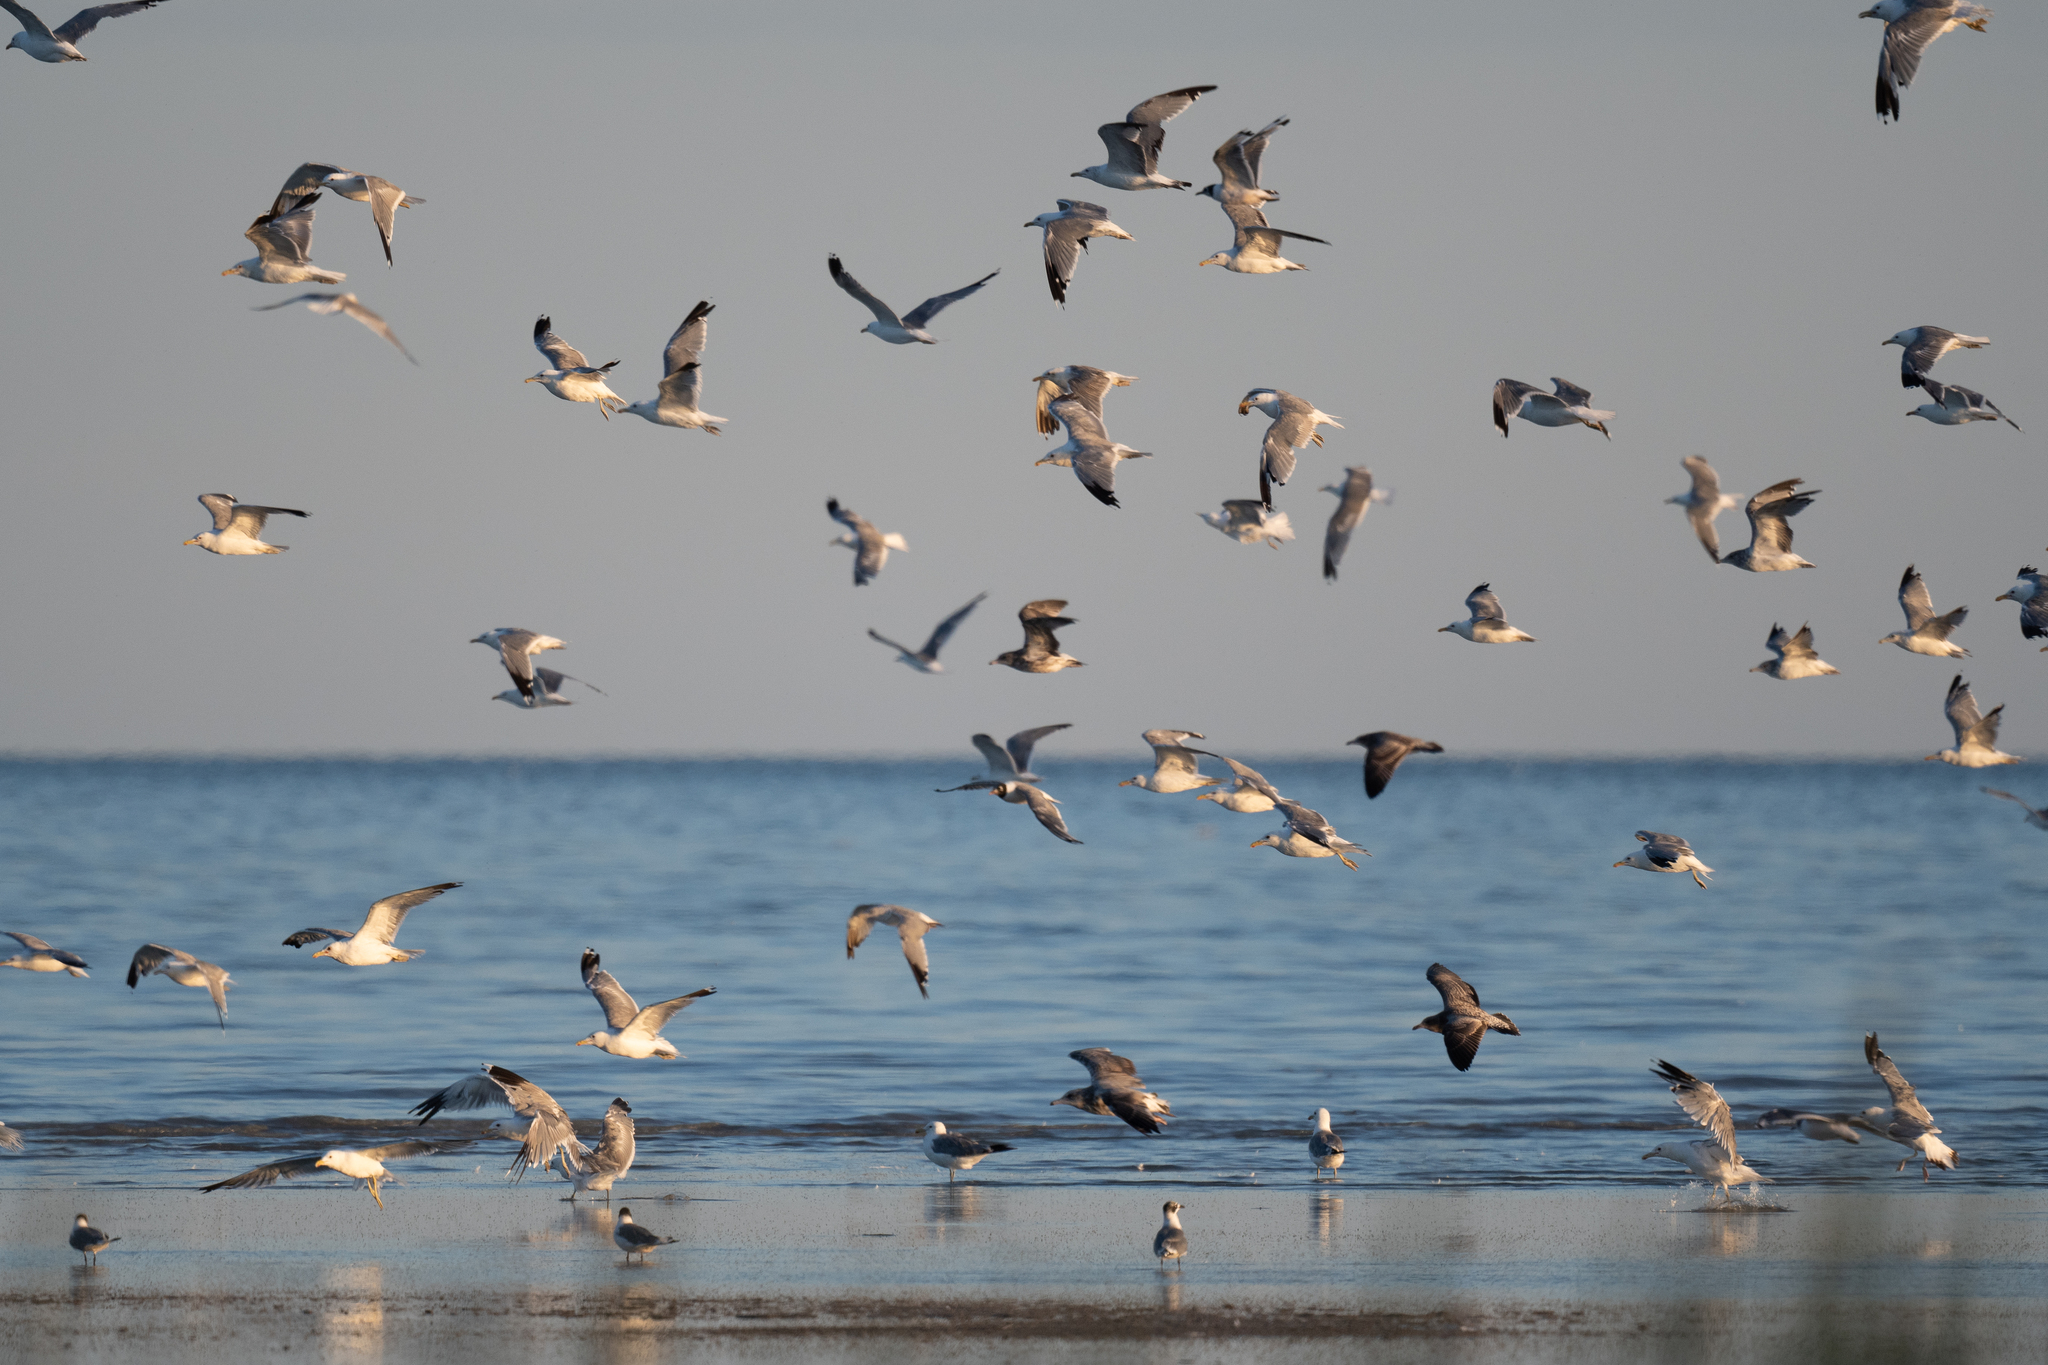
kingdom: Animalia
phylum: Chordata
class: Aves
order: Charadriiformes
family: Laridae
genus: Larus
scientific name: Larus californicus
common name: California gull
